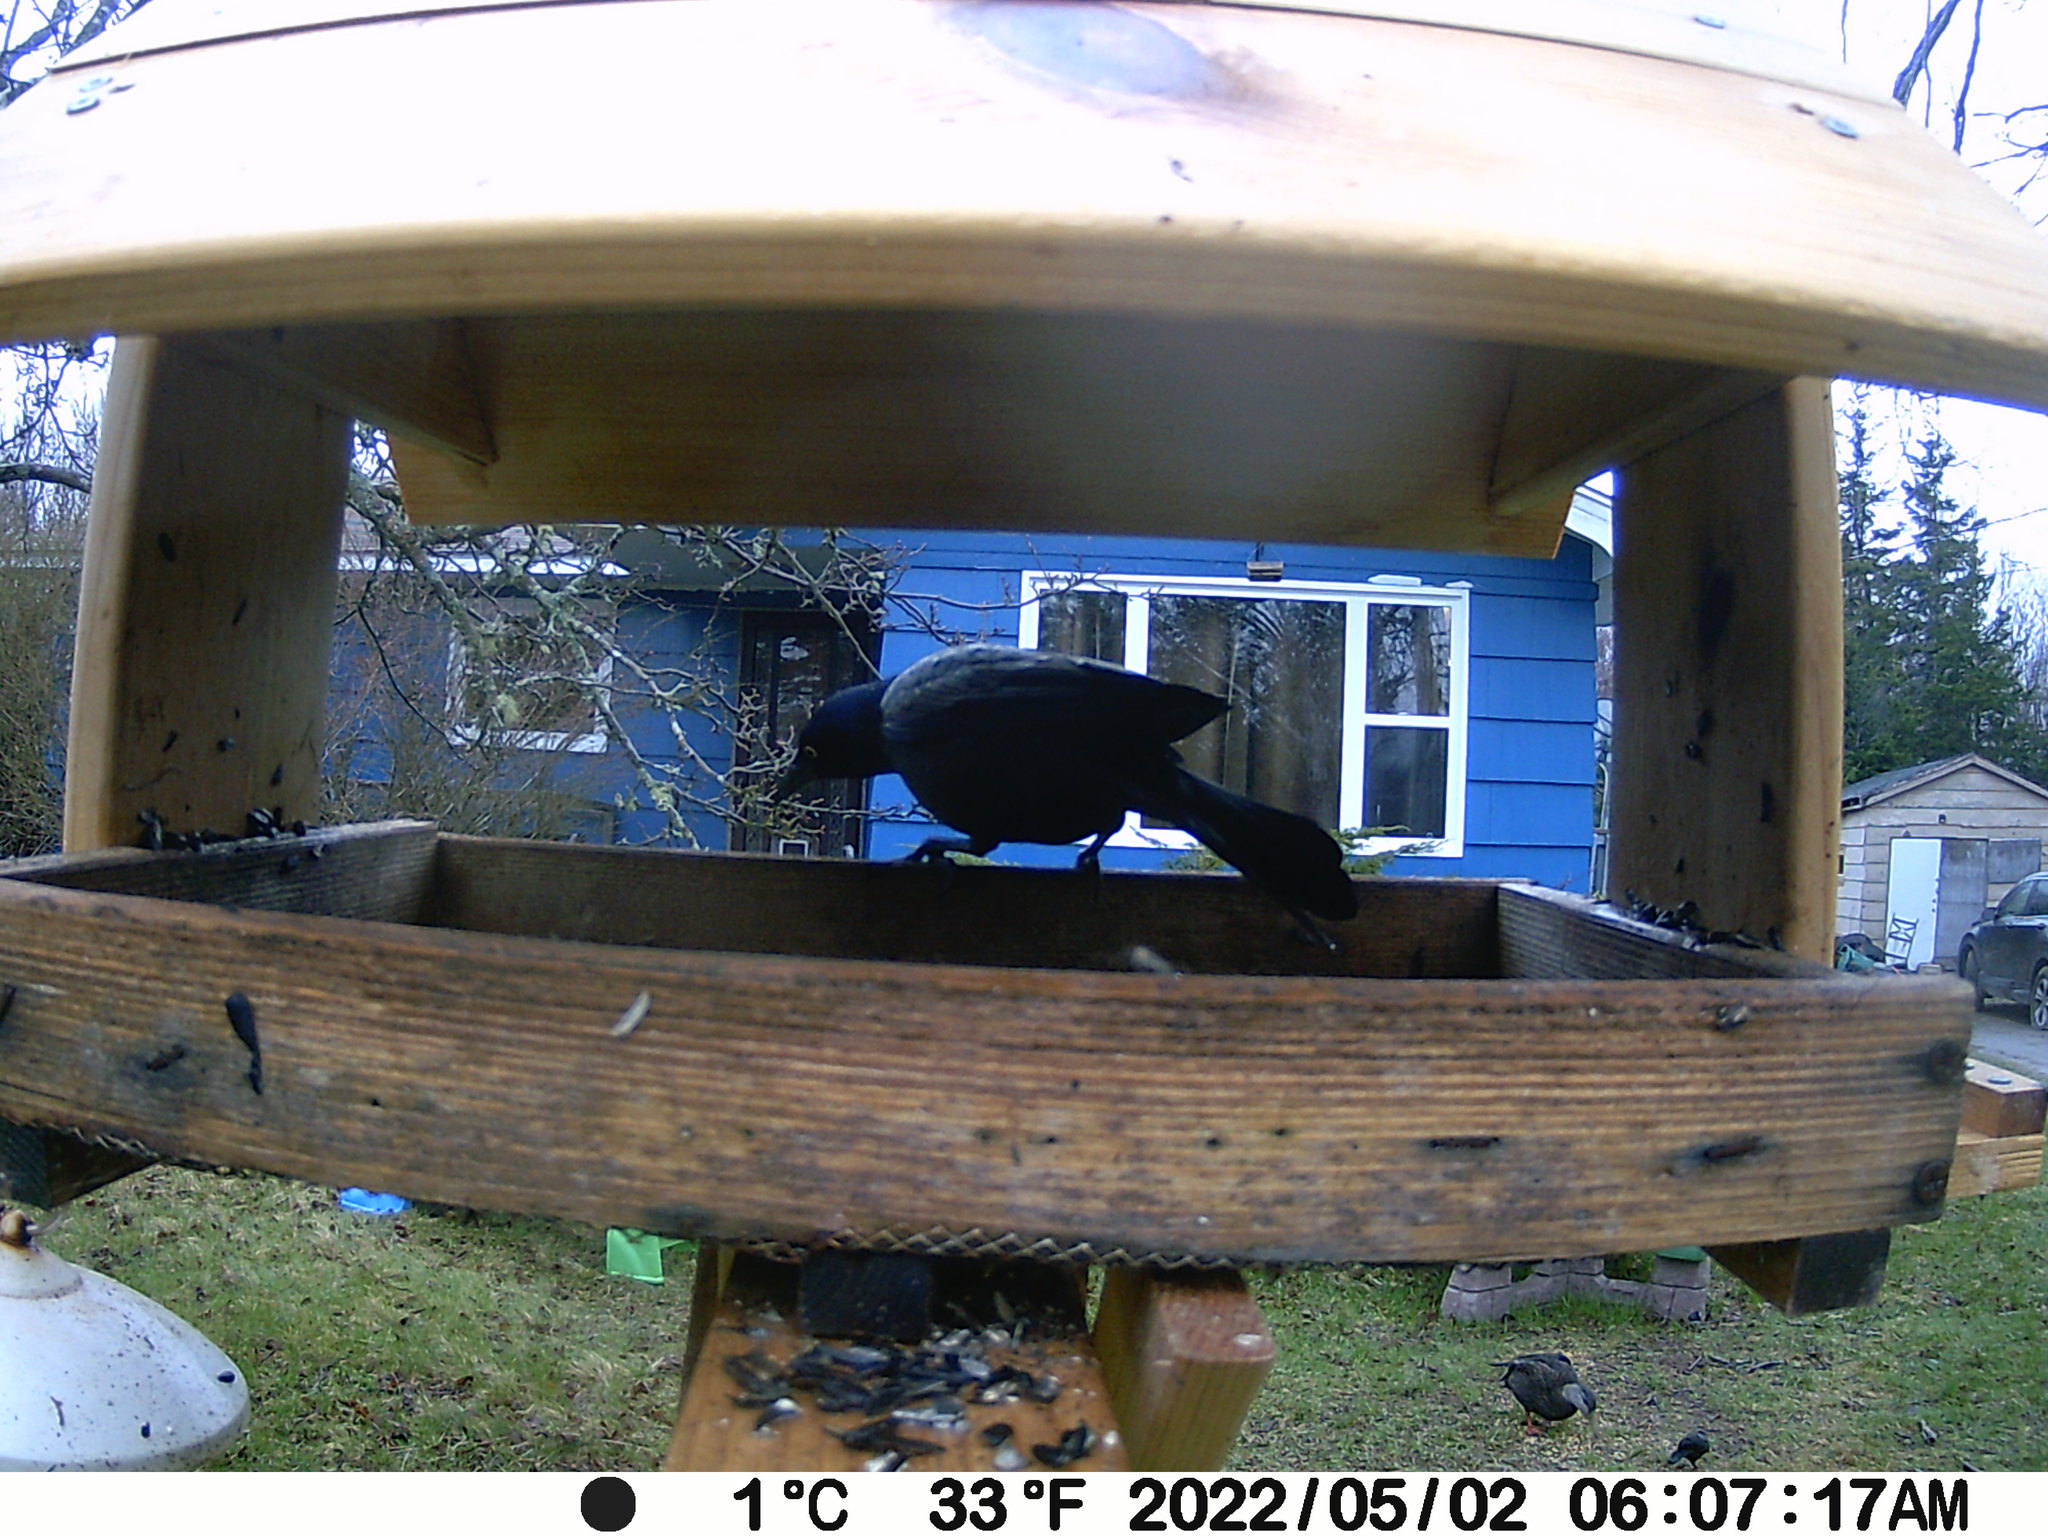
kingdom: Animalia
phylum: Chordata
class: Aves
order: Passeriformes
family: Icteridae
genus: Quiscalus
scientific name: Quiscalus quiscula
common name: Common grackle
